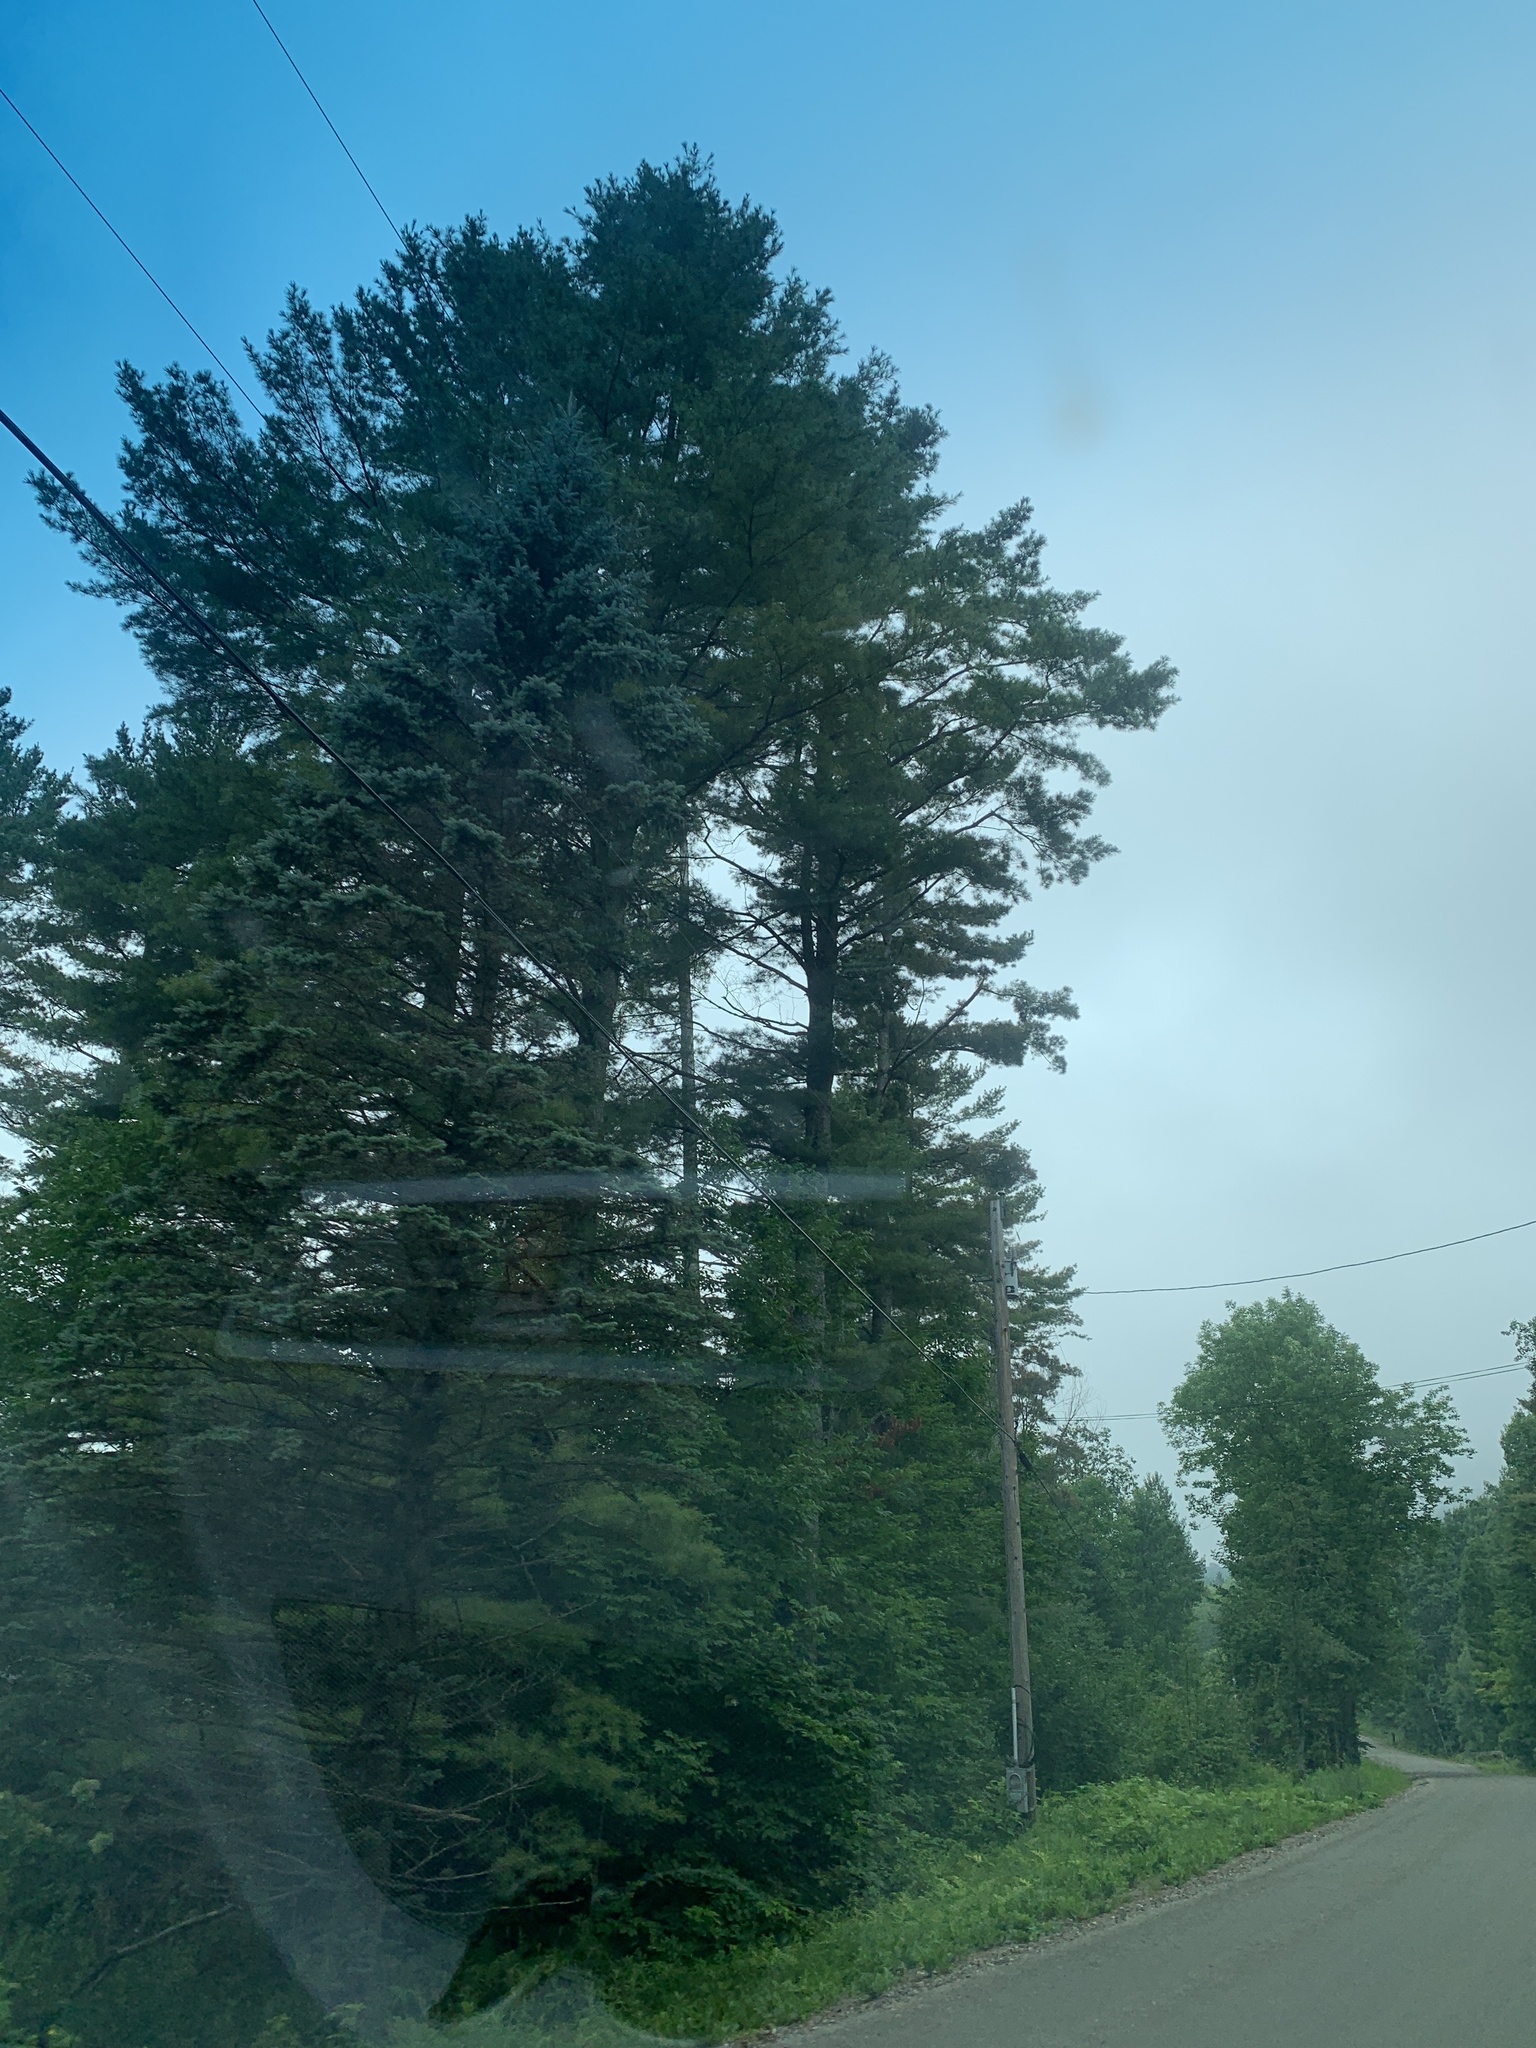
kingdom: Plantae
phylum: Tracheophyta
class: Pinopsida
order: Pinales
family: Pinaceae
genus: Pinus
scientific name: Pinus strobus
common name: Weymouth pine
